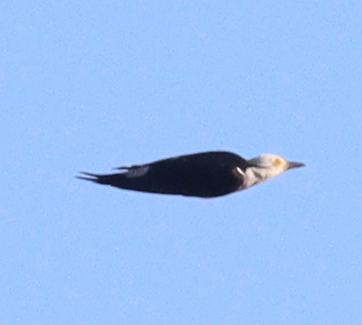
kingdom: Animalia
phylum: Chordata
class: Aves
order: Piciformes
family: Picidae
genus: Melanerpes
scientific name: Melanerpes candidus
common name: White woodpecker
